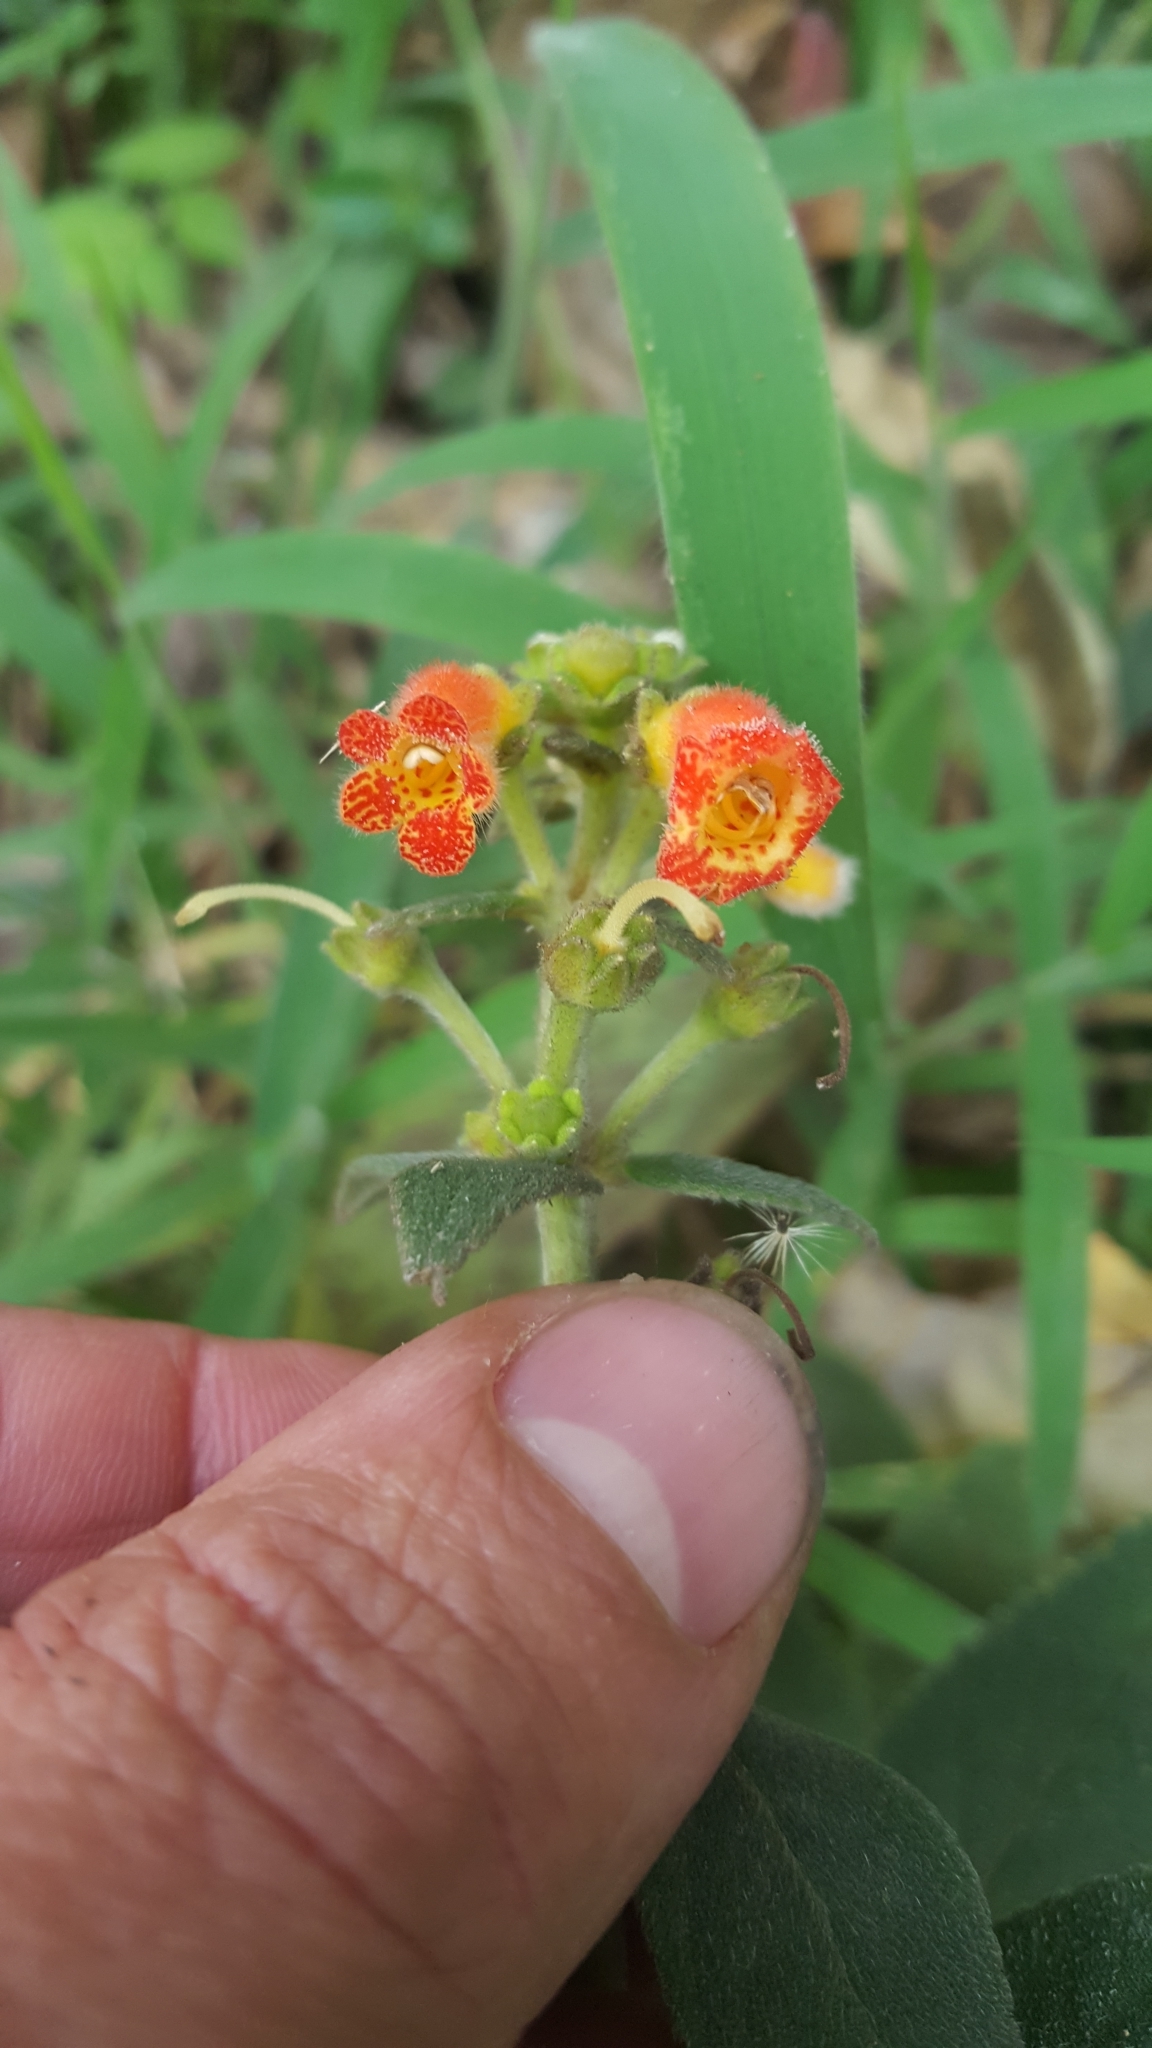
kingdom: Plantae
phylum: Tracheophyta
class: Magnoliopsida
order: Lamiales
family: Gesneriaceae
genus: Kohleria
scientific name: Kohleria spicata
